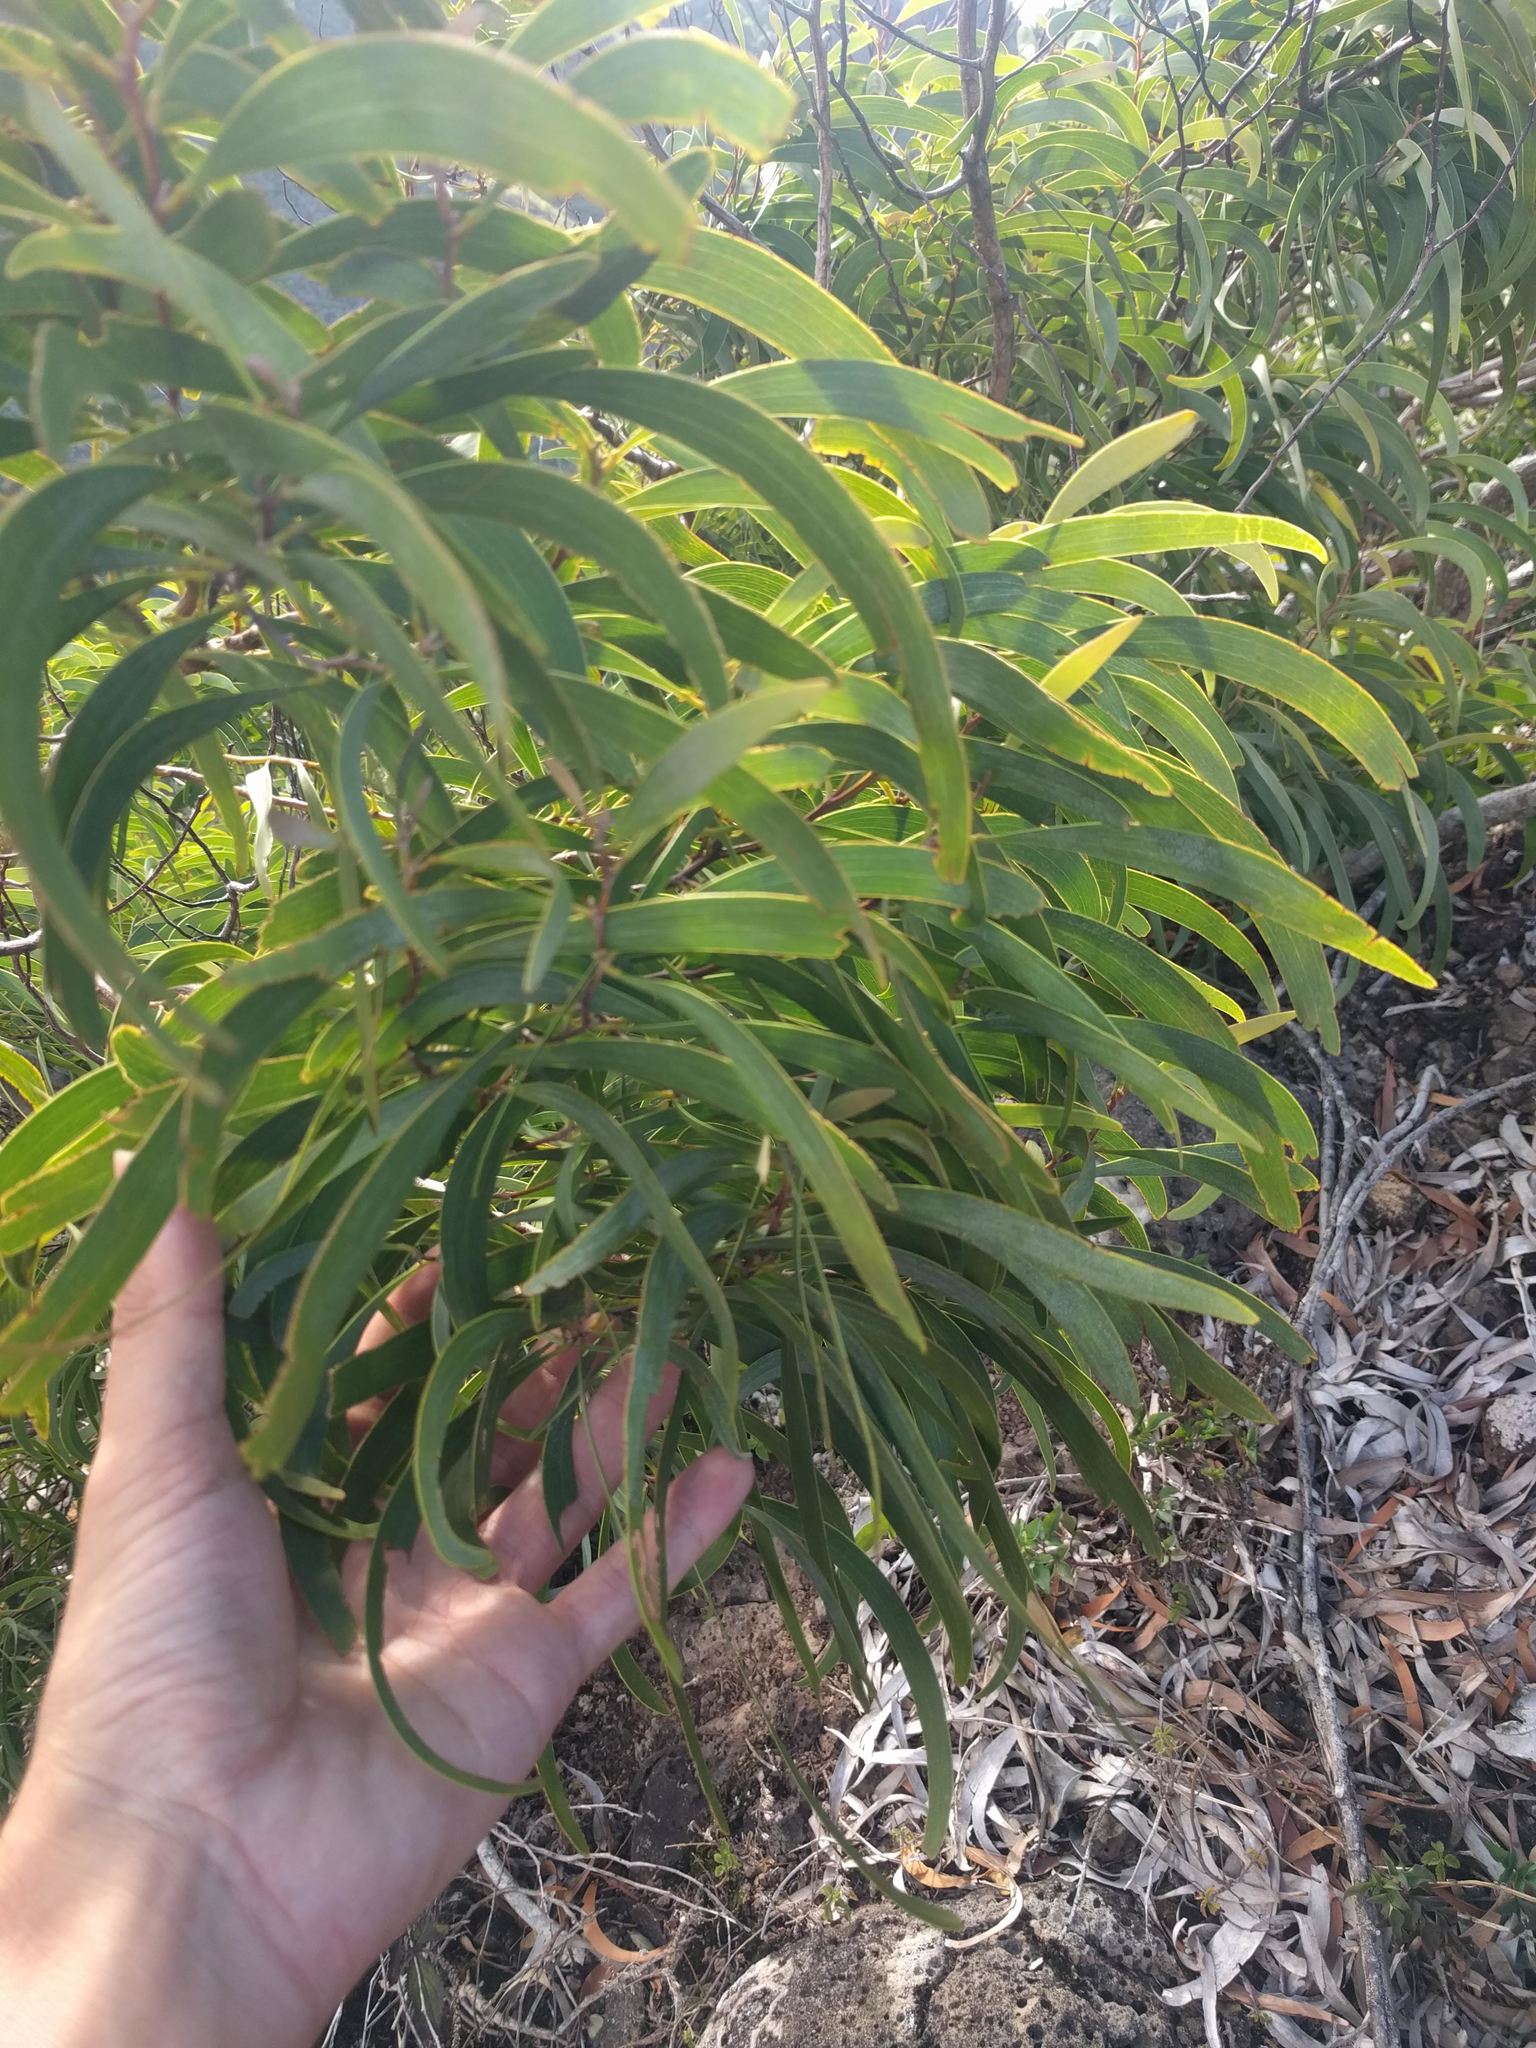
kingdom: Plantae
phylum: Tracheophyta
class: Magnoliopsida
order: Fabales
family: Fabaceae
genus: Acacia
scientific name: Acacia koa
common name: Gray koa
